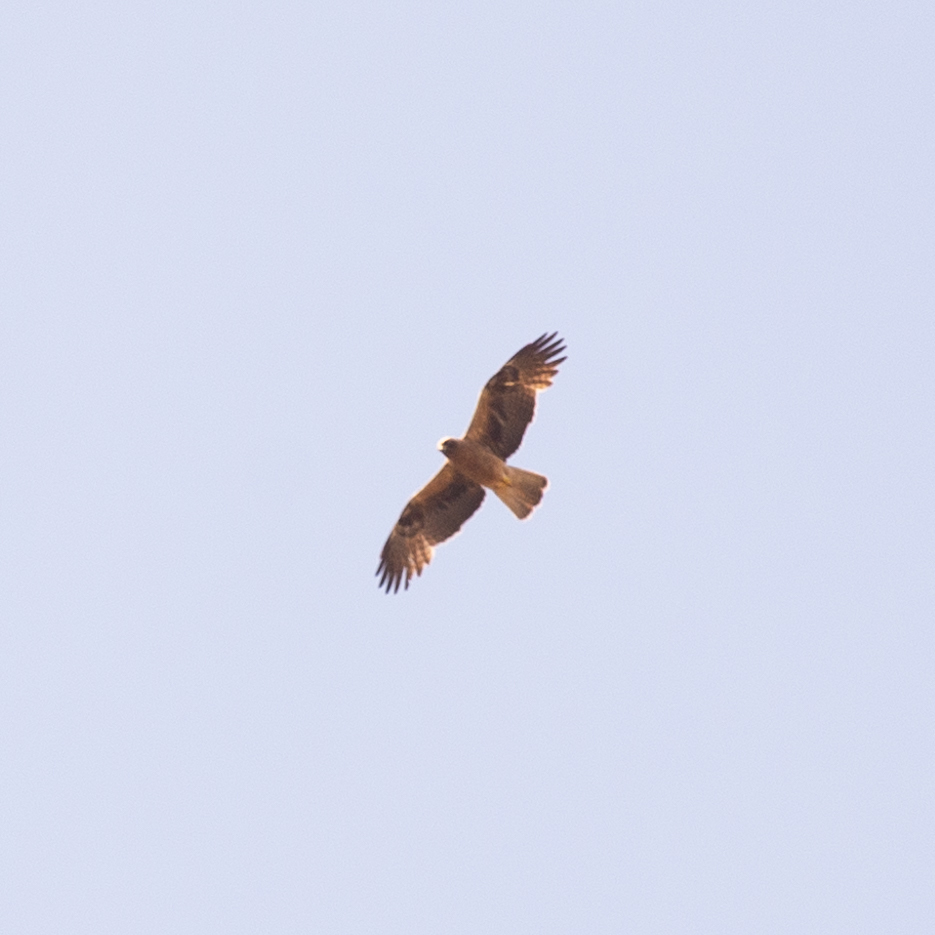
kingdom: Animalia
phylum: Chordata
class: Aves
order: Accipitriformes
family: Accipitridae
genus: Hieraaetus
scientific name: Hieraaetus pennatus
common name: Booted eagle
